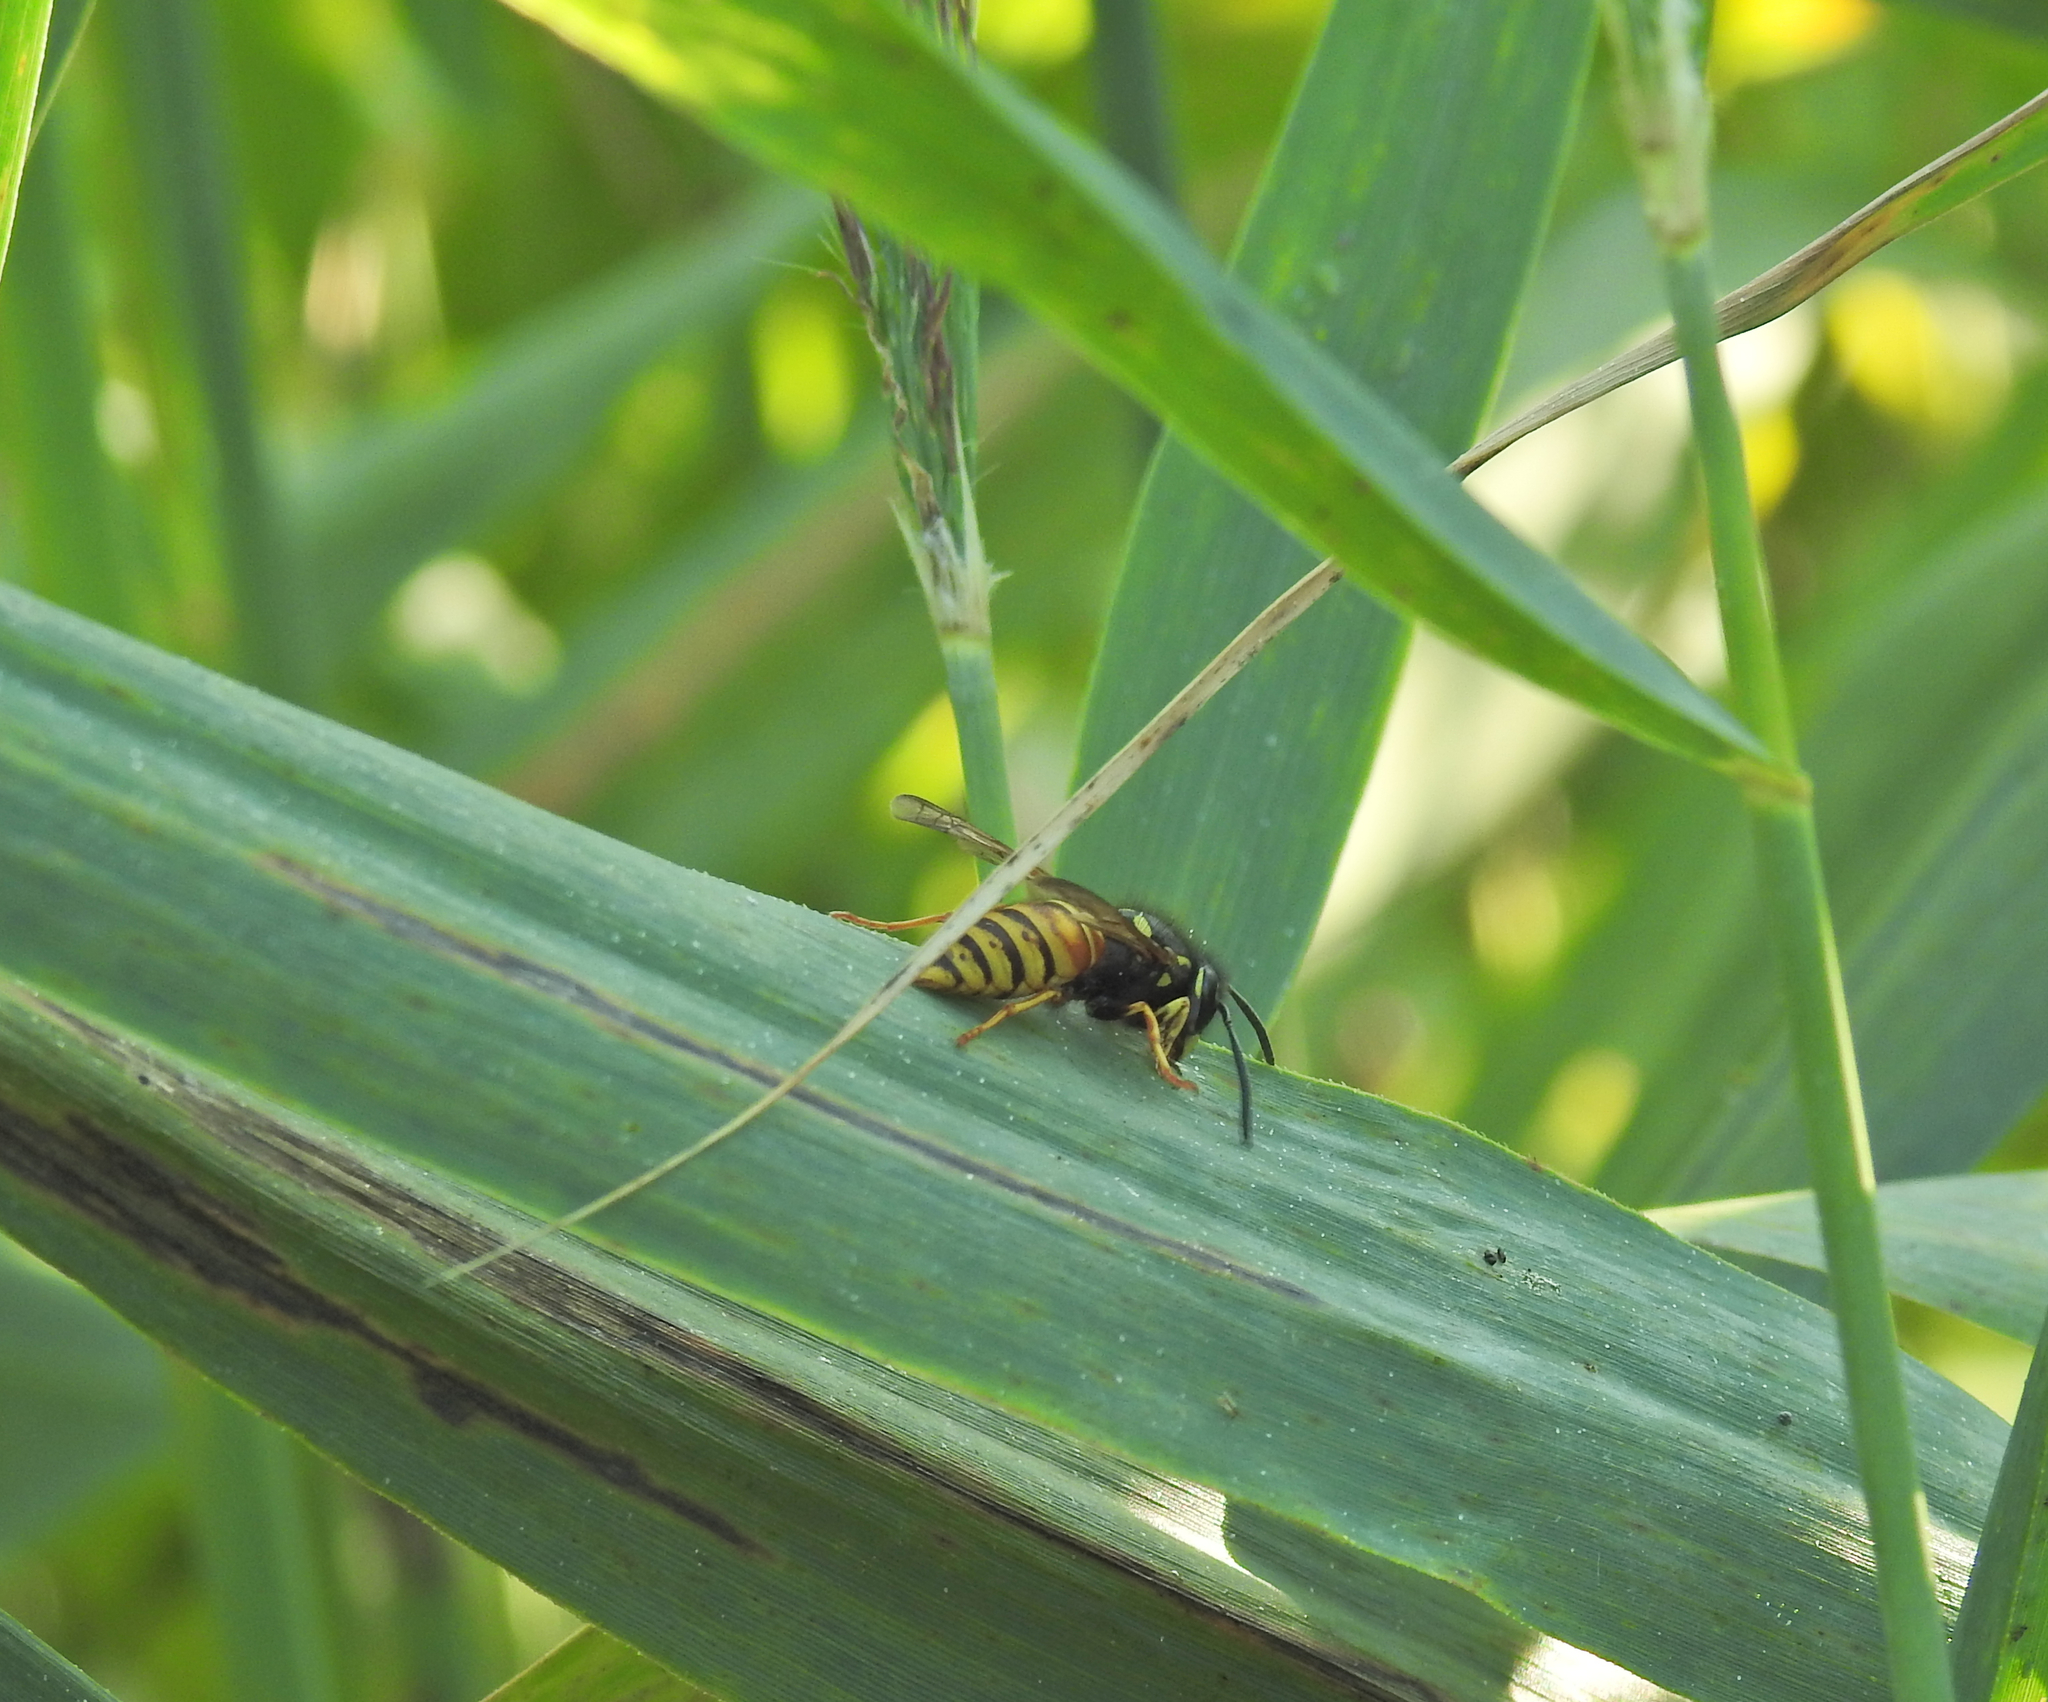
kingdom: Animalia
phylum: Arthropoda
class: Insecta
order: Hymenoptera
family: Vespidae
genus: Vespula
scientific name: Vespula rufa
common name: Red wasp
